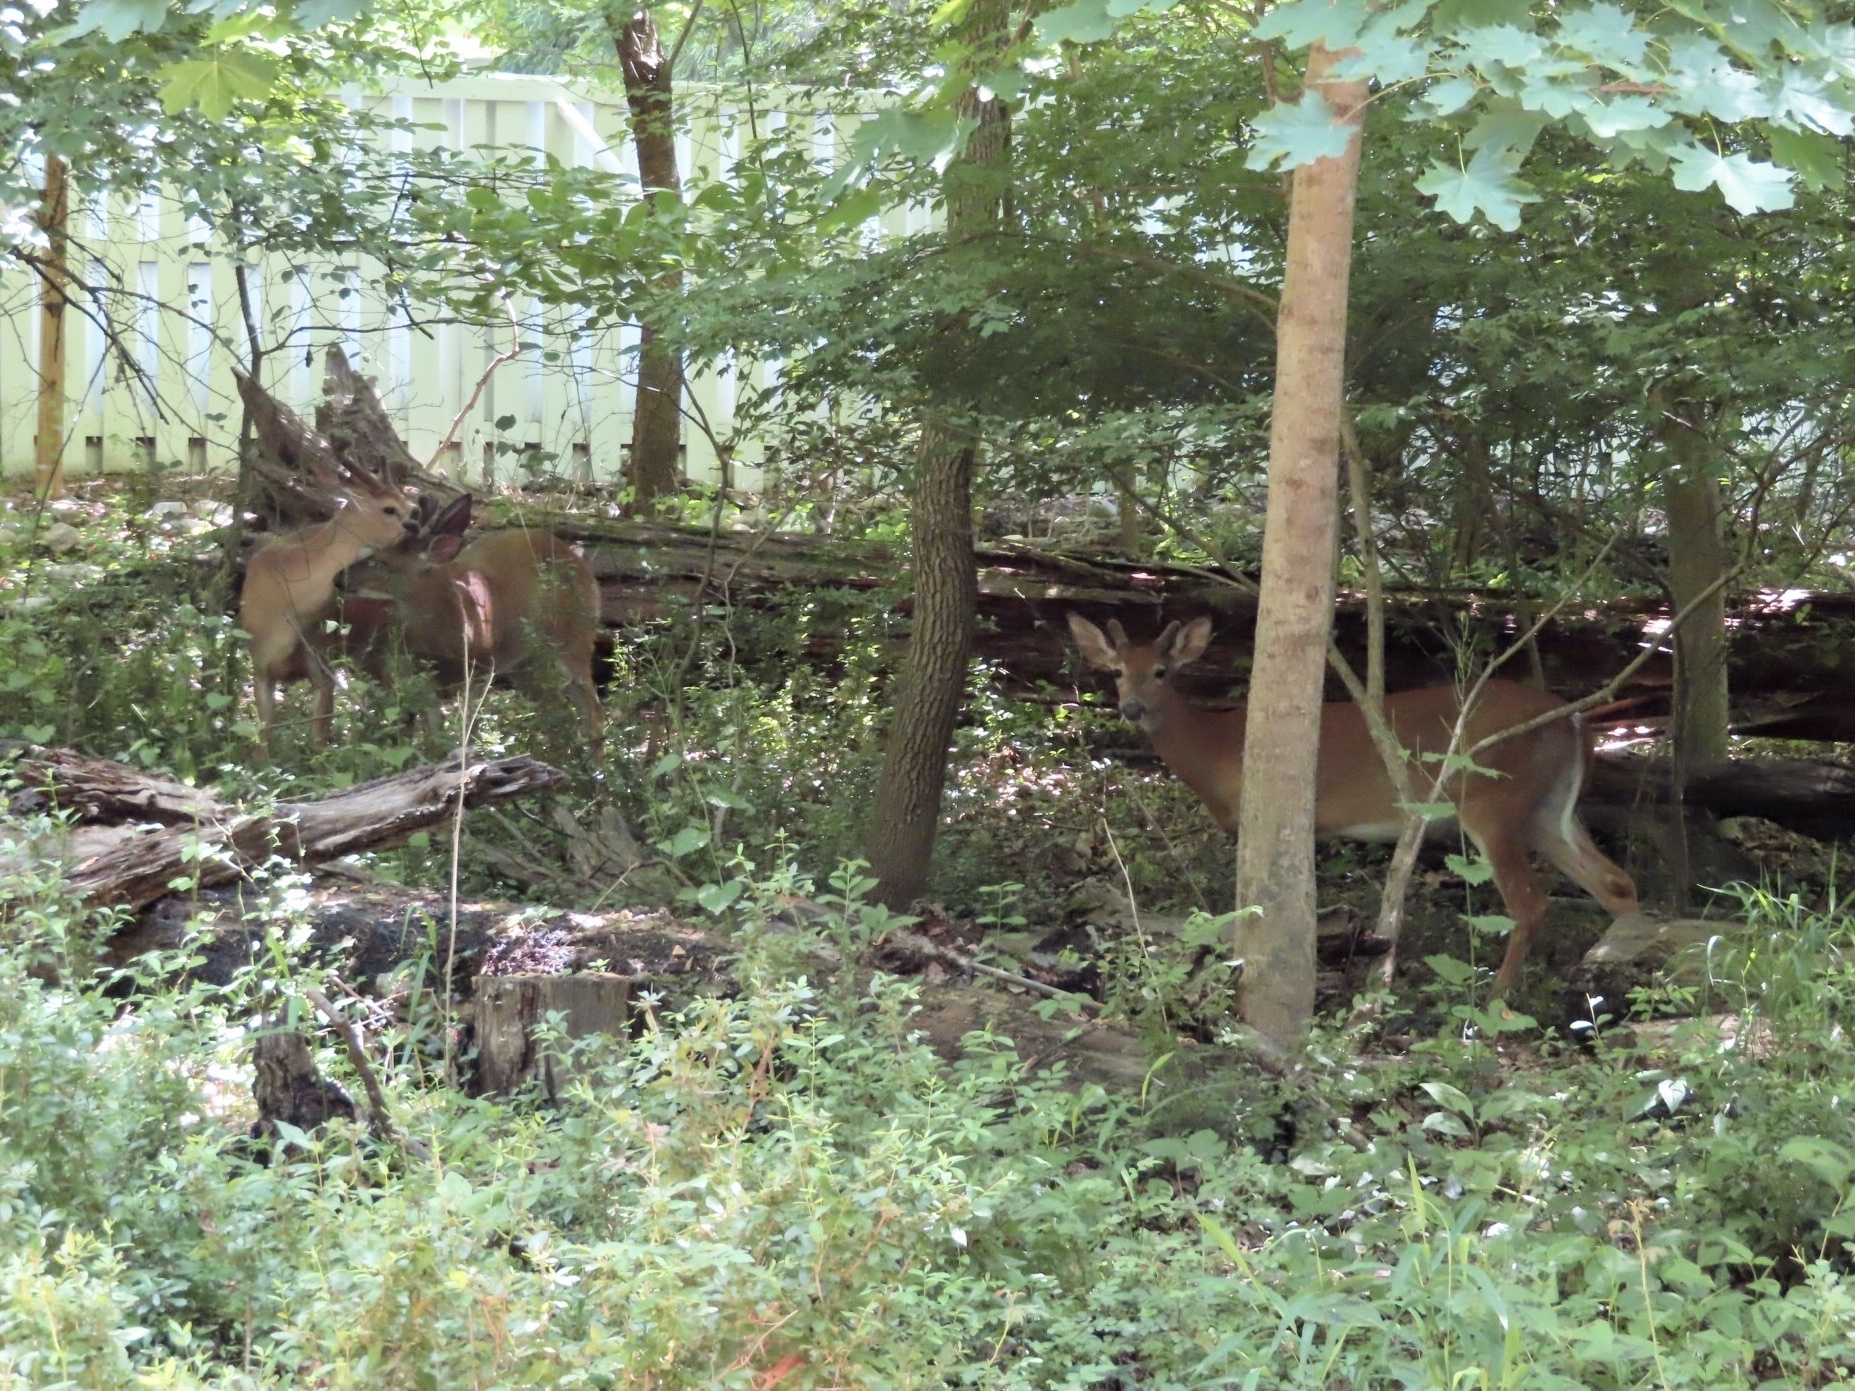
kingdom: Animalia
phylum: Chordata
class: Mammalia
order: Artiodactyla
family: Cervidae
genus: Odocoileus
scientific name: Odocoileus virginianus
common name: White-tailed deer
